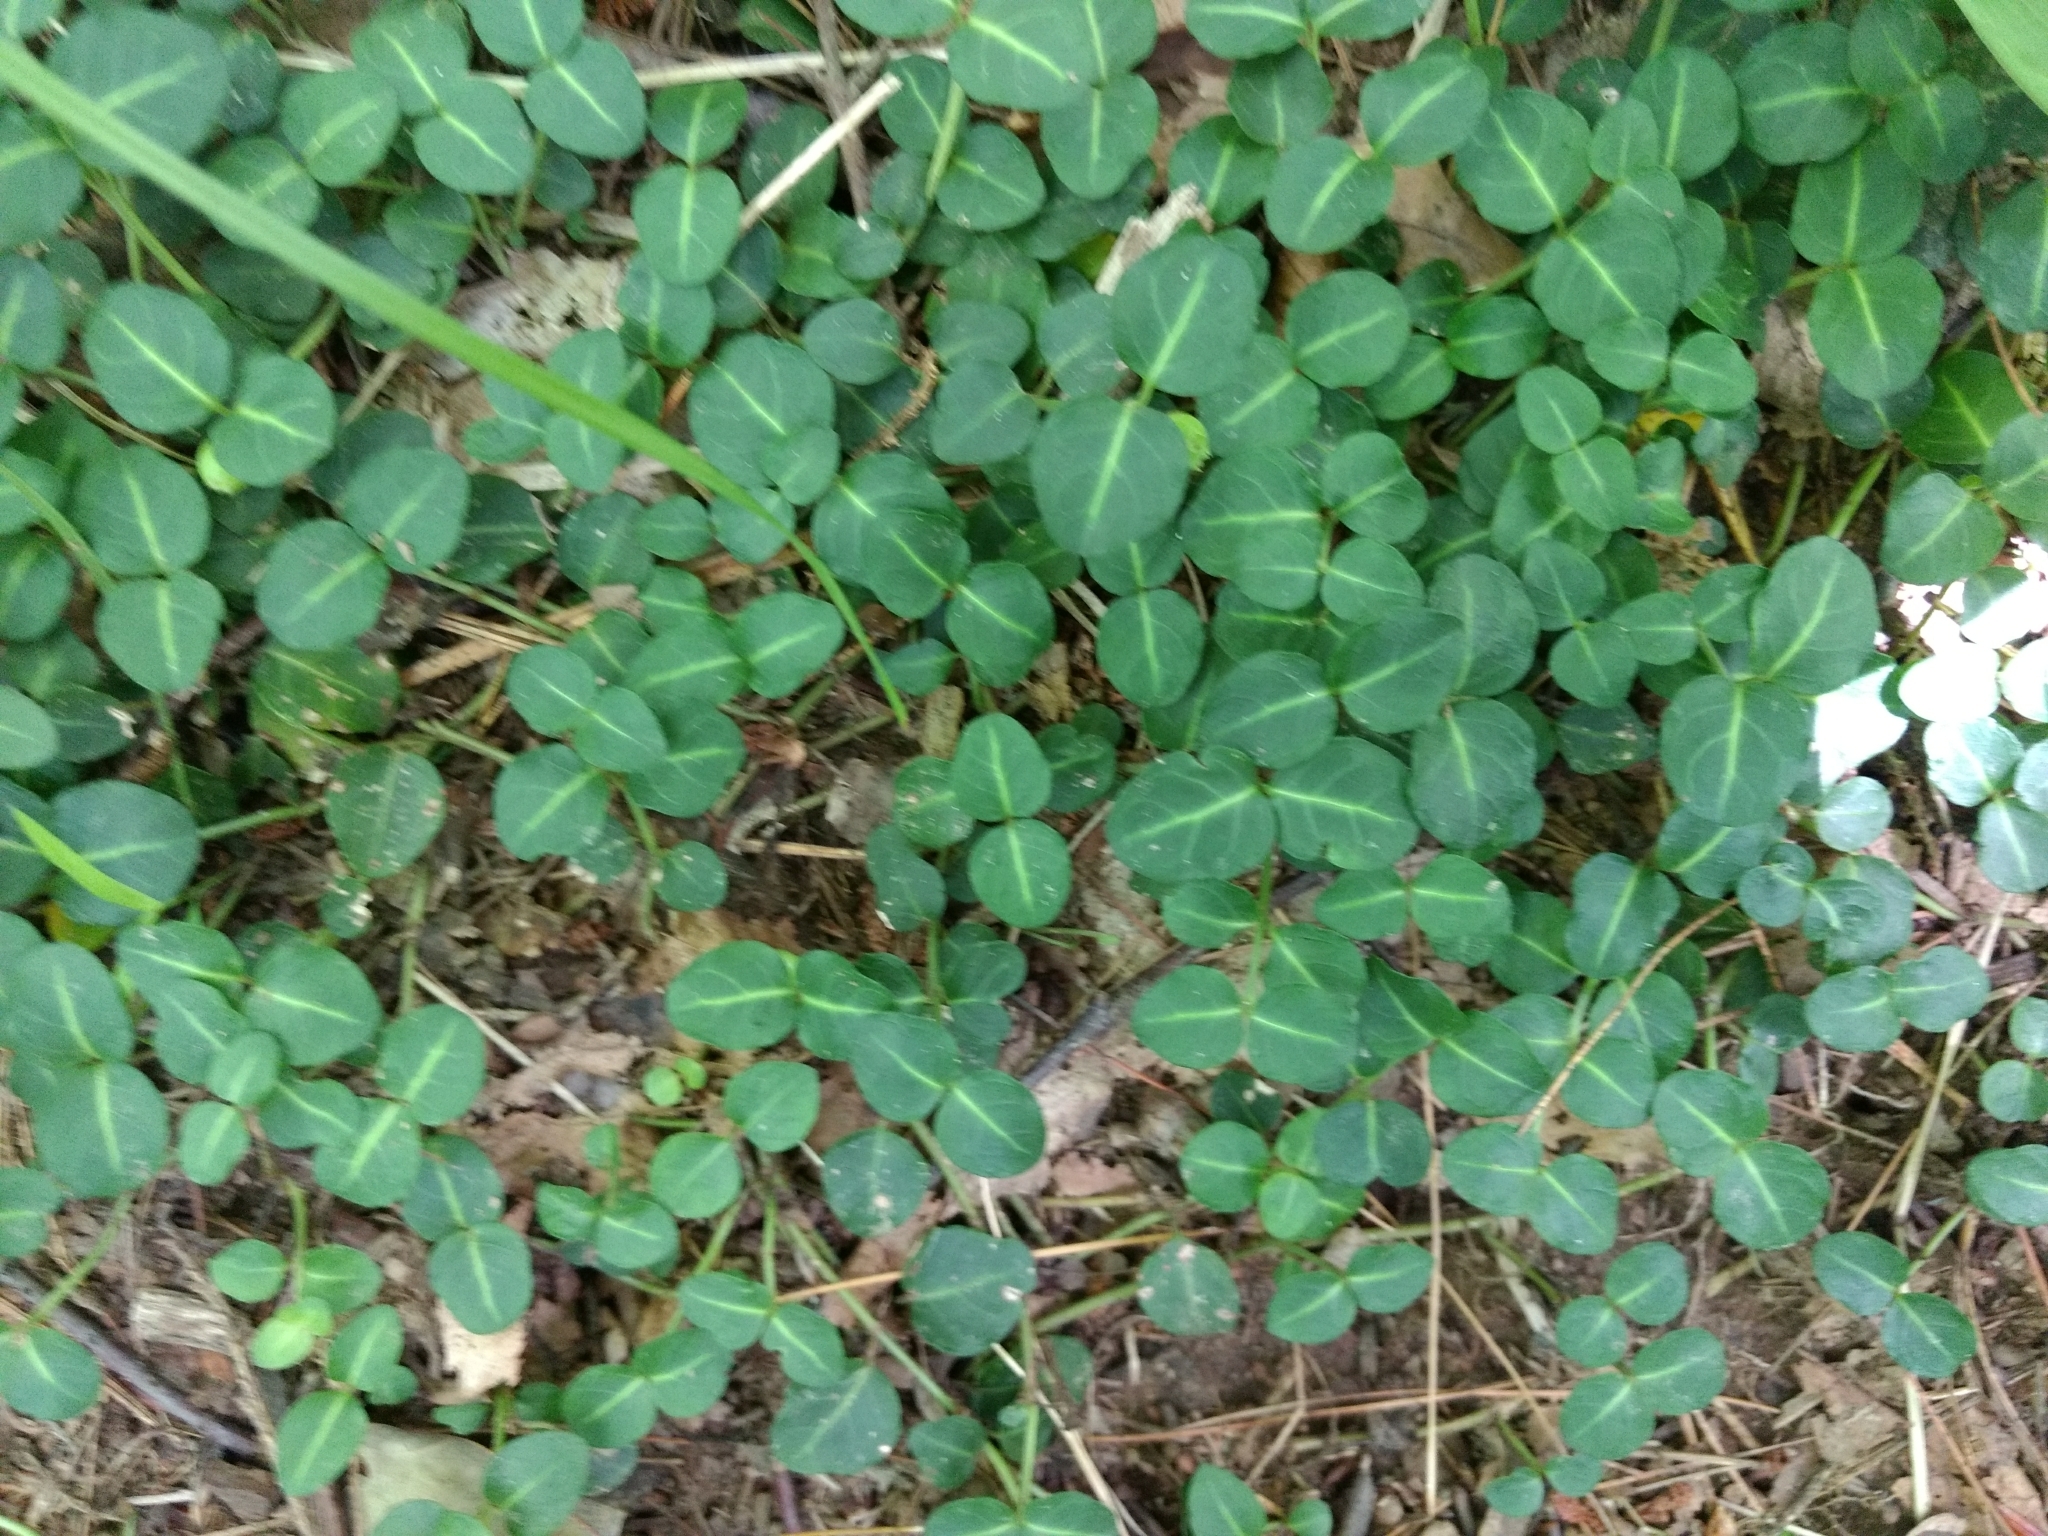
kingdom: Plantae
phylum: Tracheophyta
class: Magnoliopsida
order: Gentianales
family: Rubiaceae
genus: Mitchella
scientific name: Mitchella repens
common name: Partridge-berry
